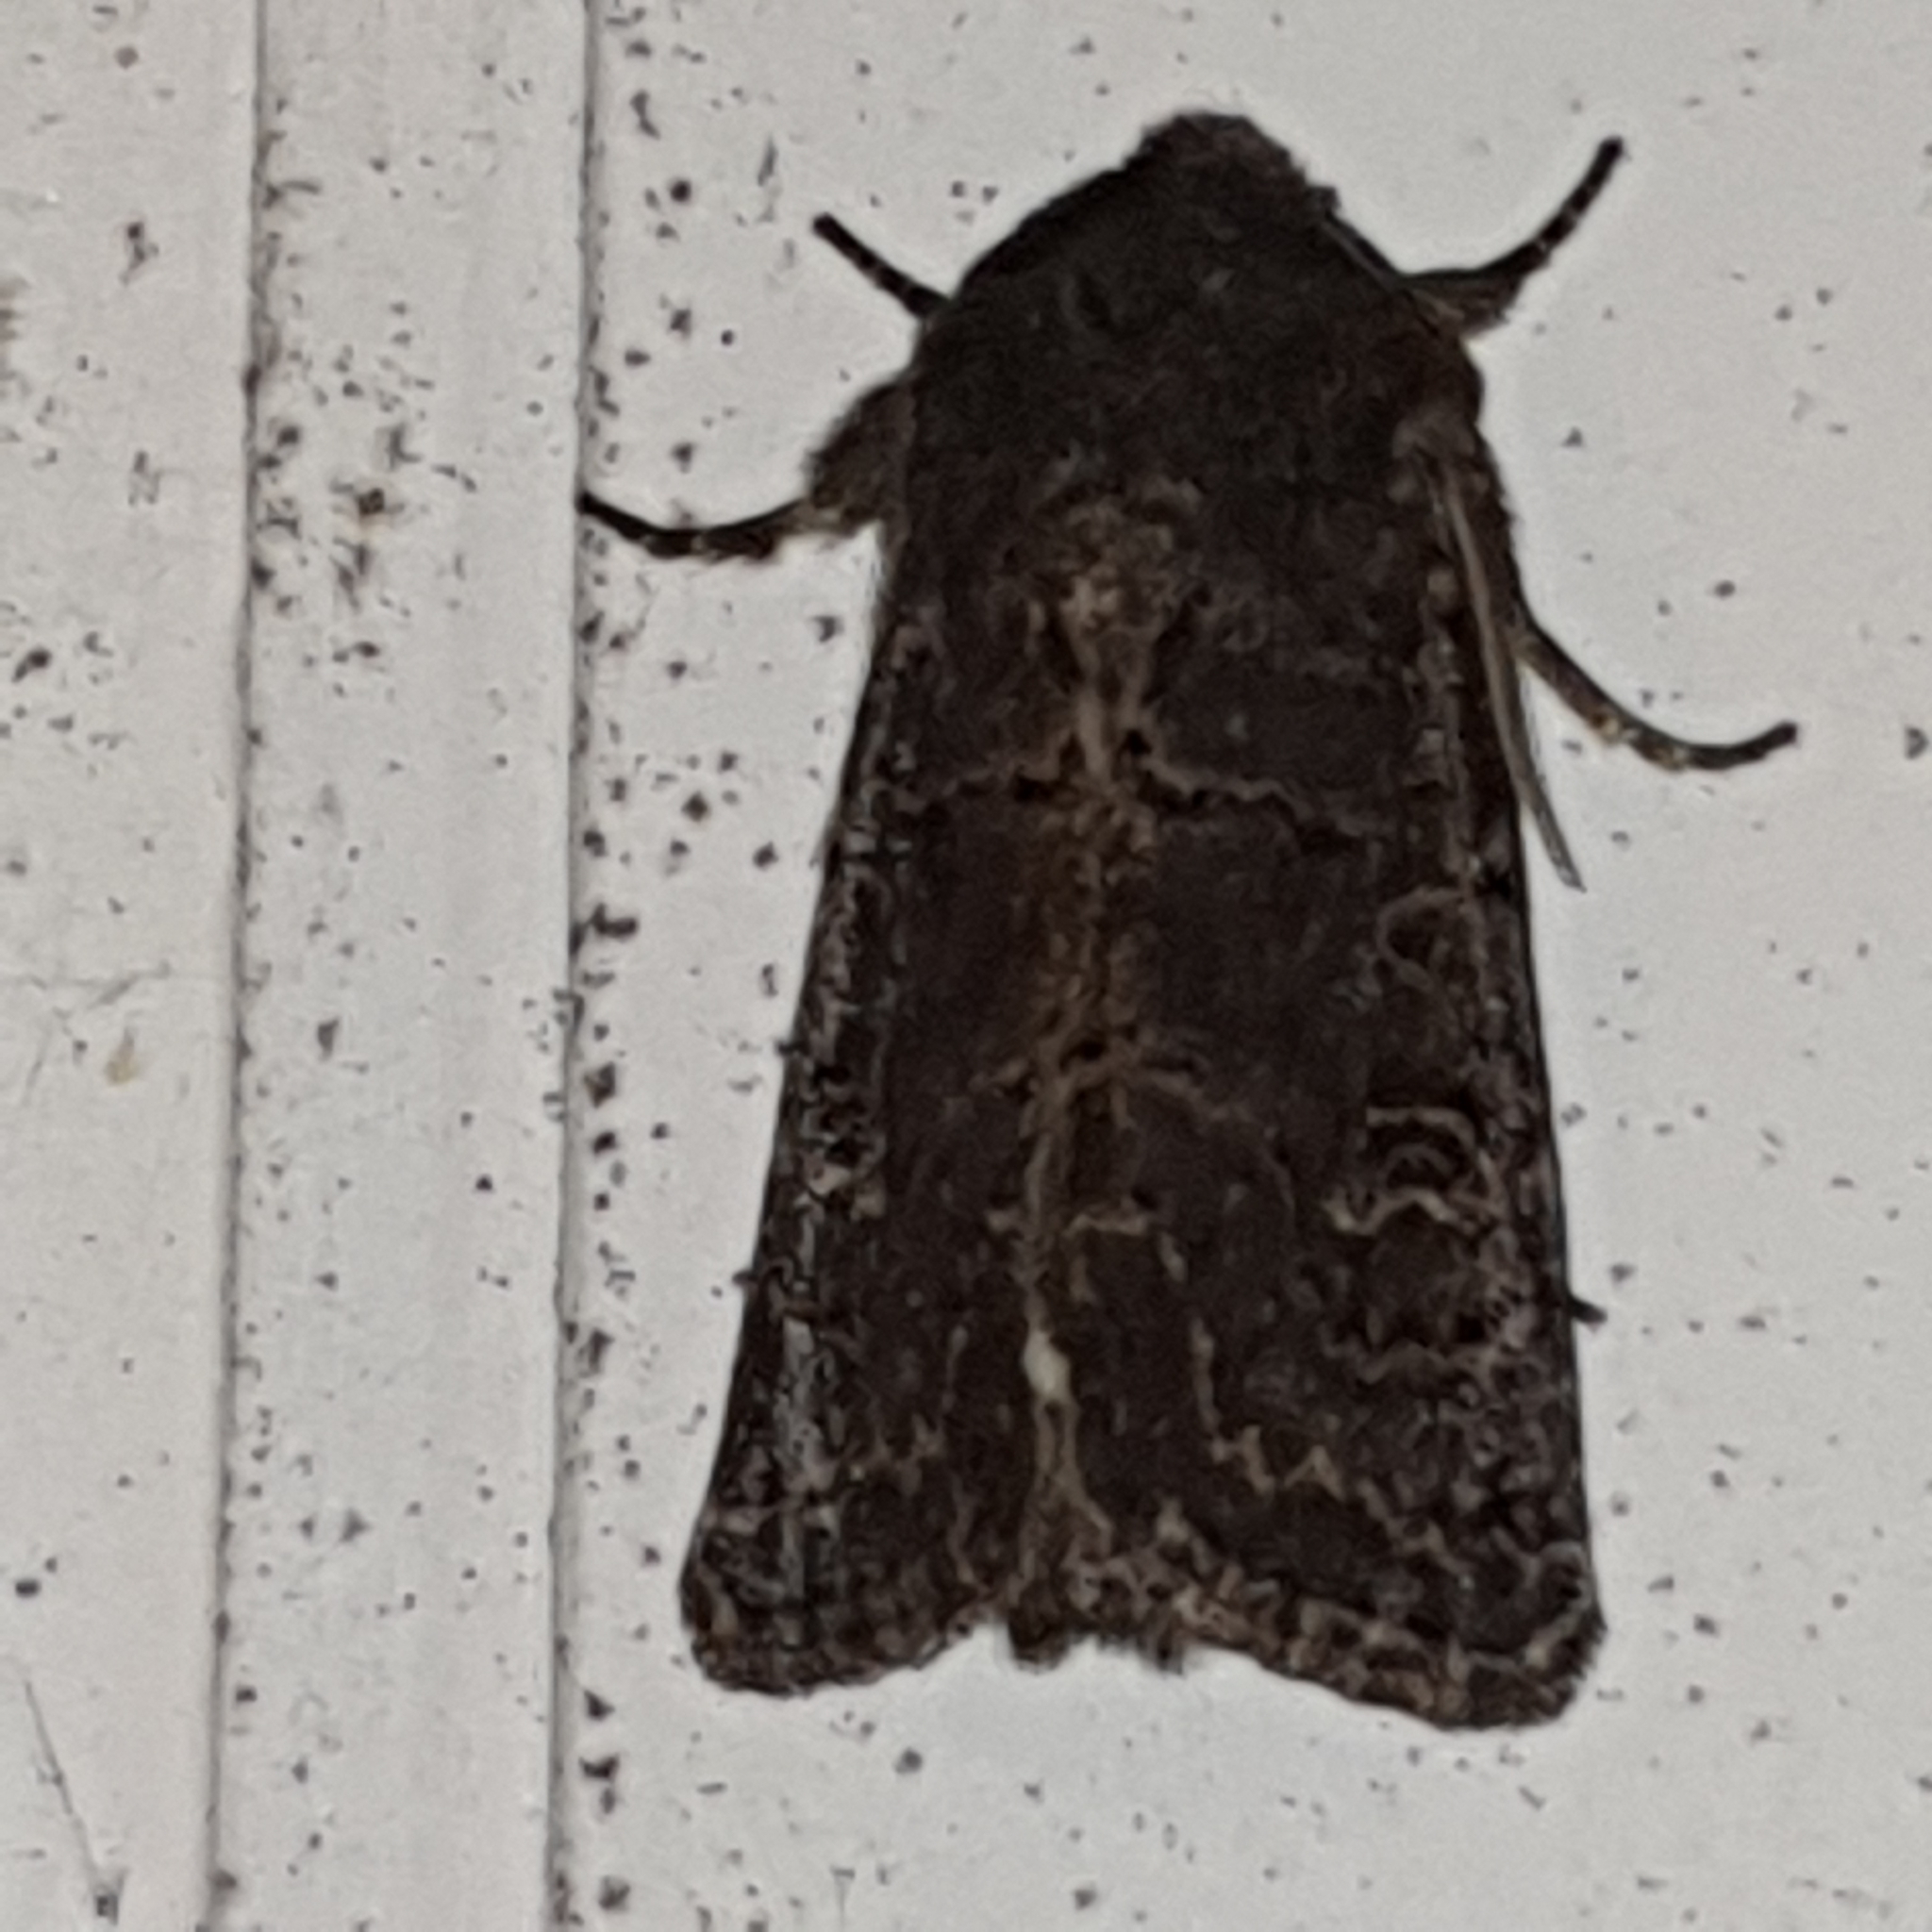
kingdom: Animalia
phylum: Arthropoda
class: Insecta
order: Lepidoptera
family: Noctuidae
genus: Tholera
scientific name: Tholera cespitis
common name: Hedge rustic
